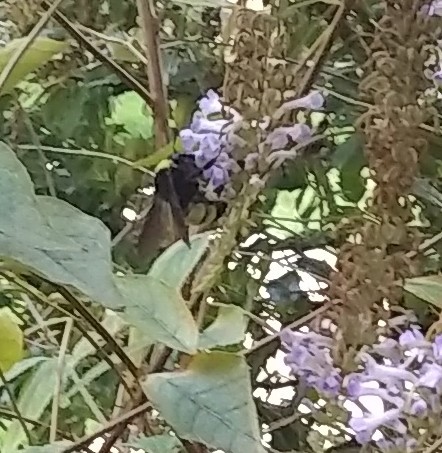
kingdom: Animalia
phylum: Arthropoda
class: Insecta
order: Hymenoptera
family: Apidae
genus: Bombus
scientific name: Bombus pensylvanicus
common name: Bumble bee
